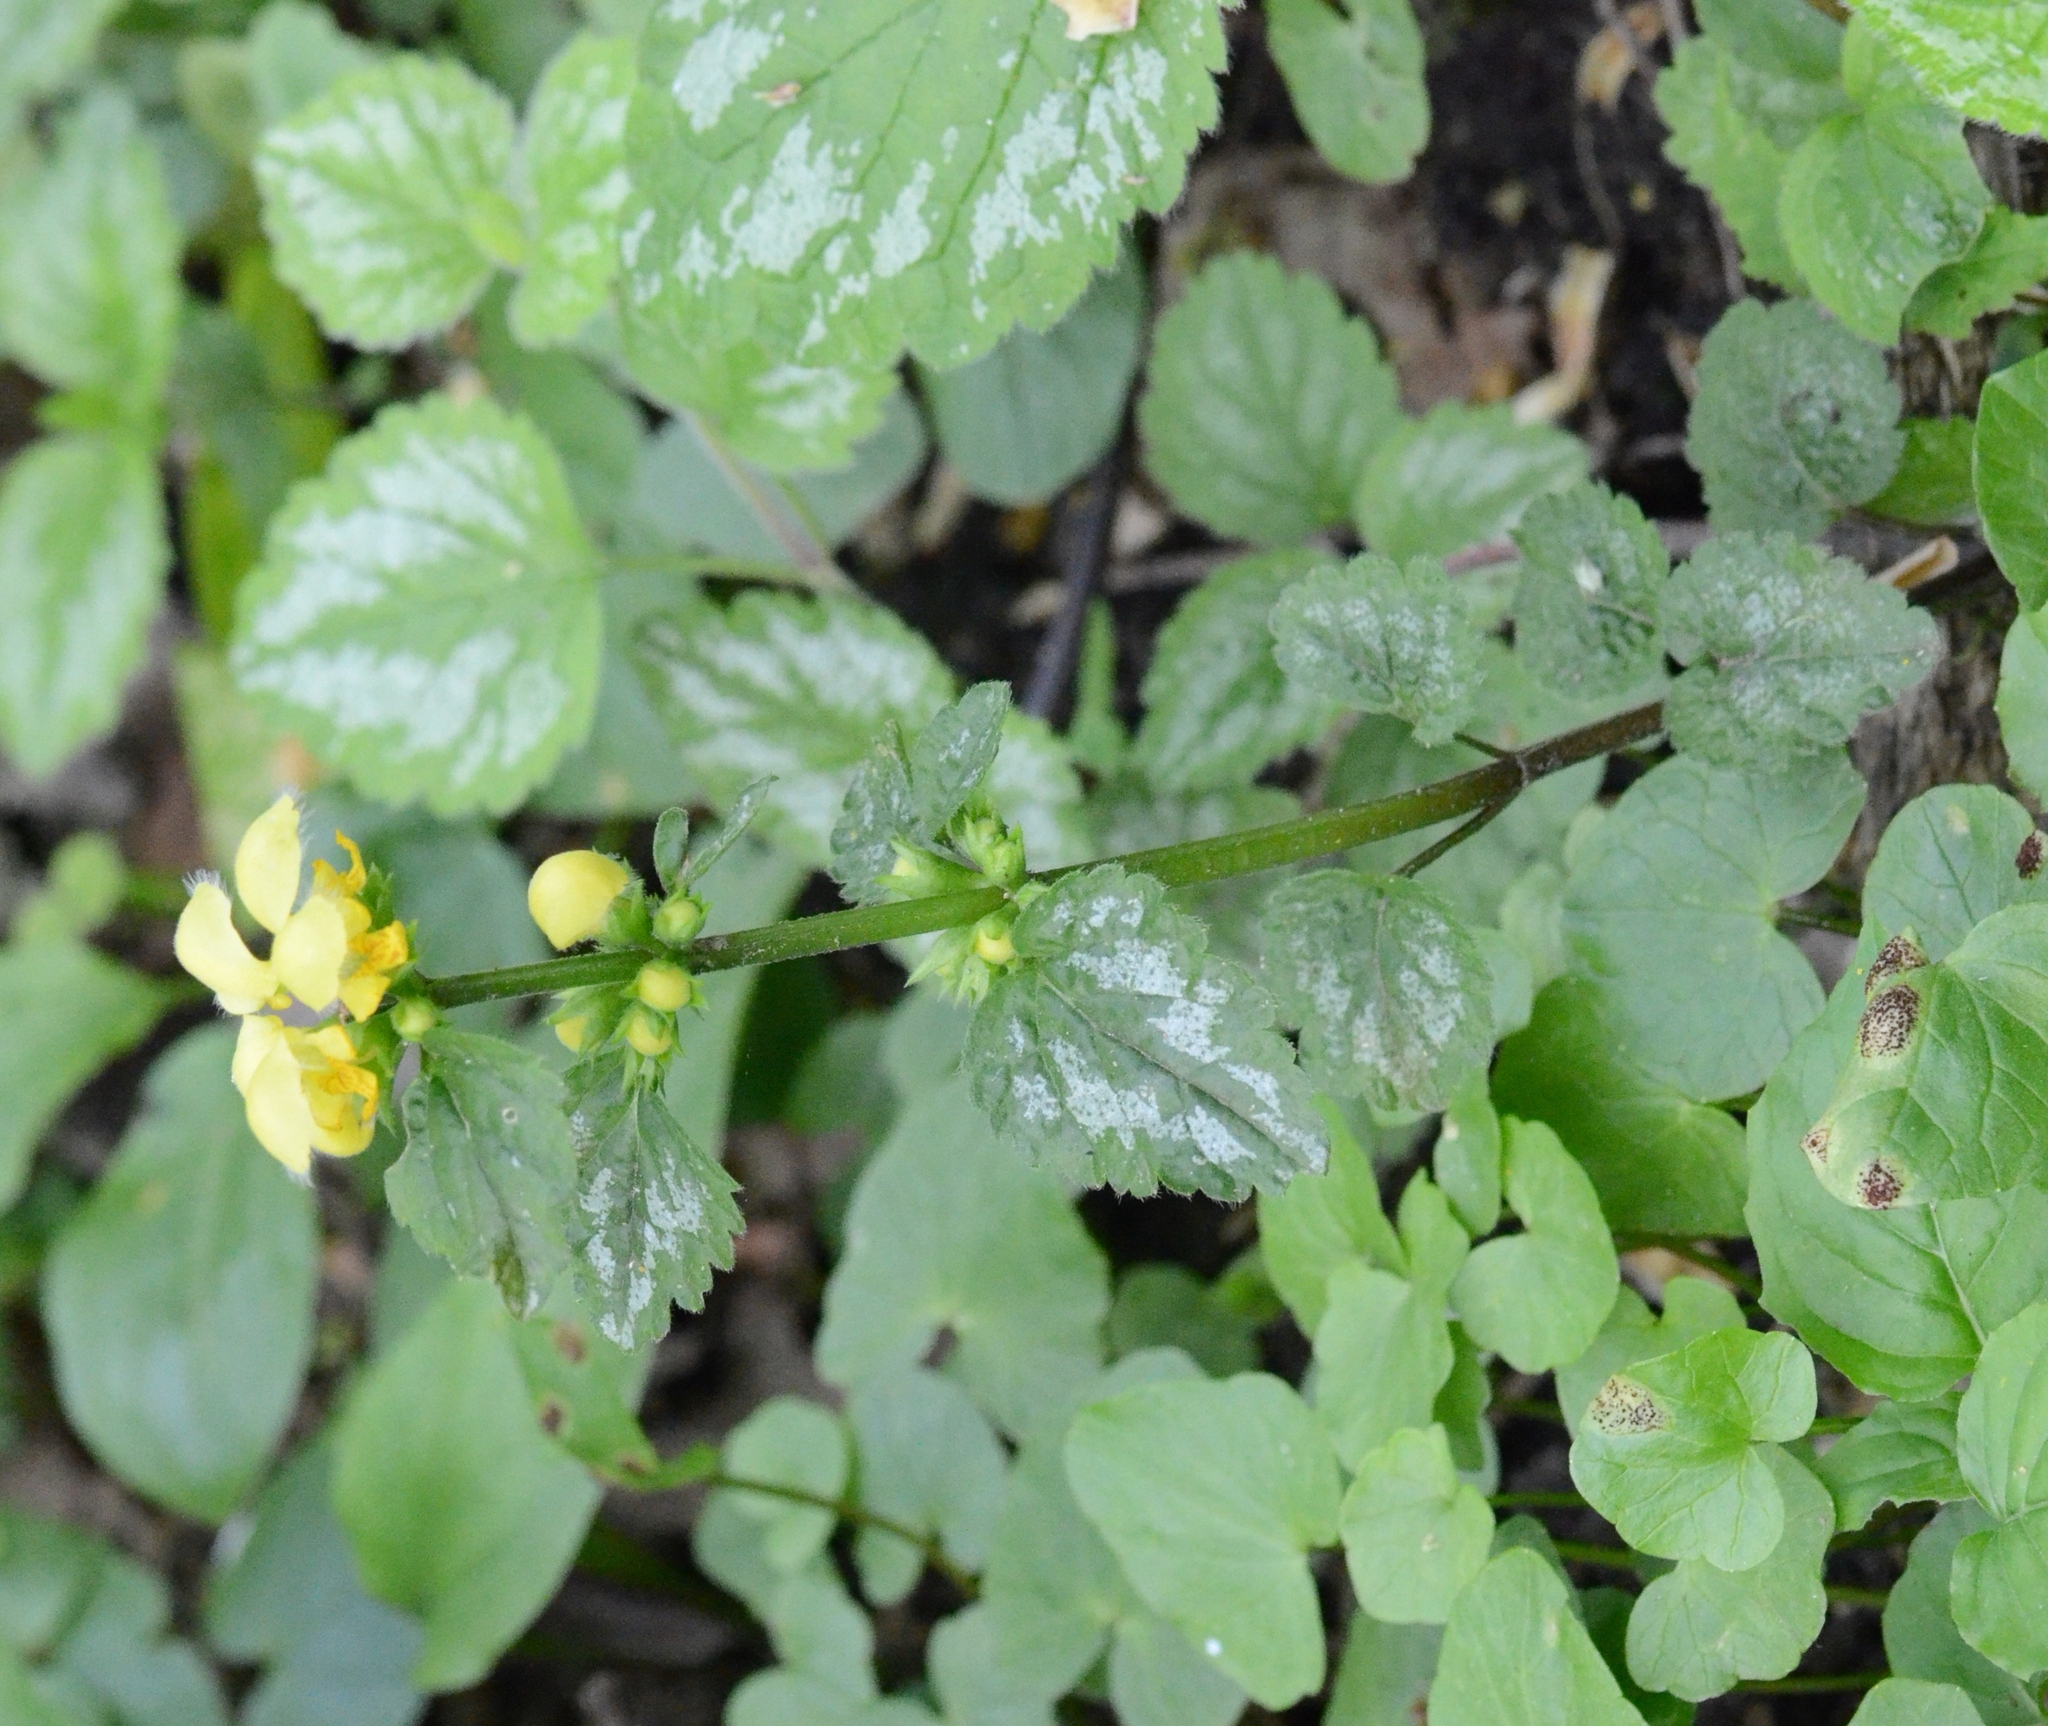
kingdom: Plantae
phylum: Tracheophyta
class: Magnoliopsida
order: Lamiales
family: Lamiaceae
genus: Lamium
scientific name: Lamium galeobdolon
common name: Yellow archangel
